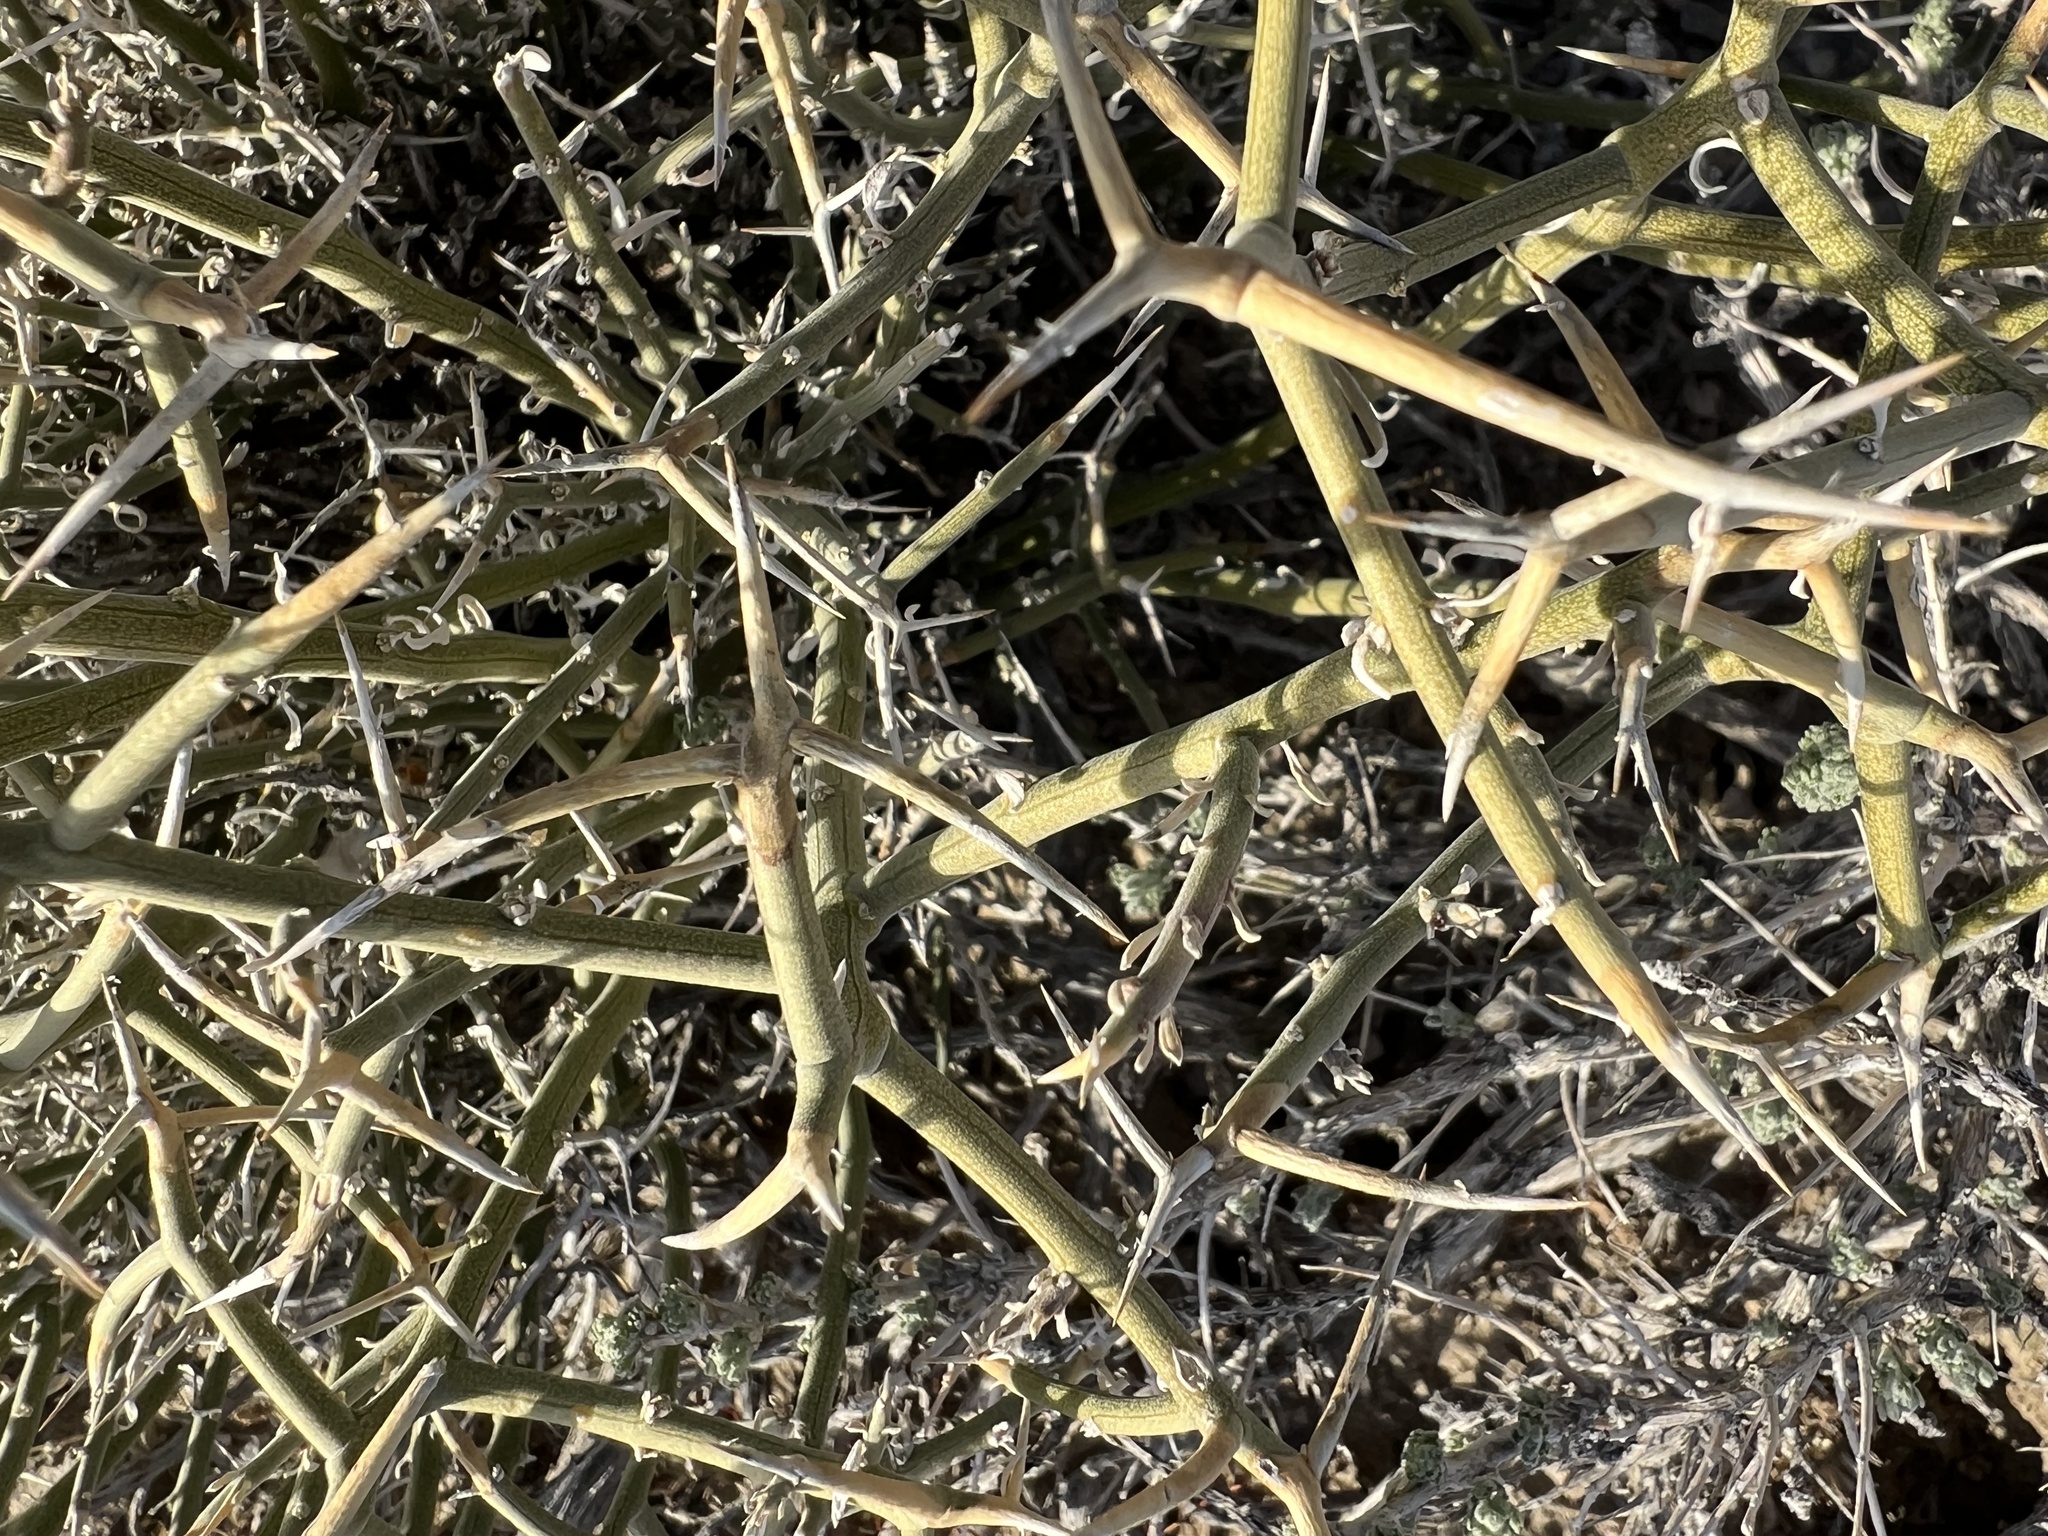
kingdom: Plantae
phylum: Tracheophyta
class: Magnoliopsida
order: Lamiales
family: Oleaceae
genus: Menodora
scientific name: Menodora spinescens
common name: Spiny menodora
